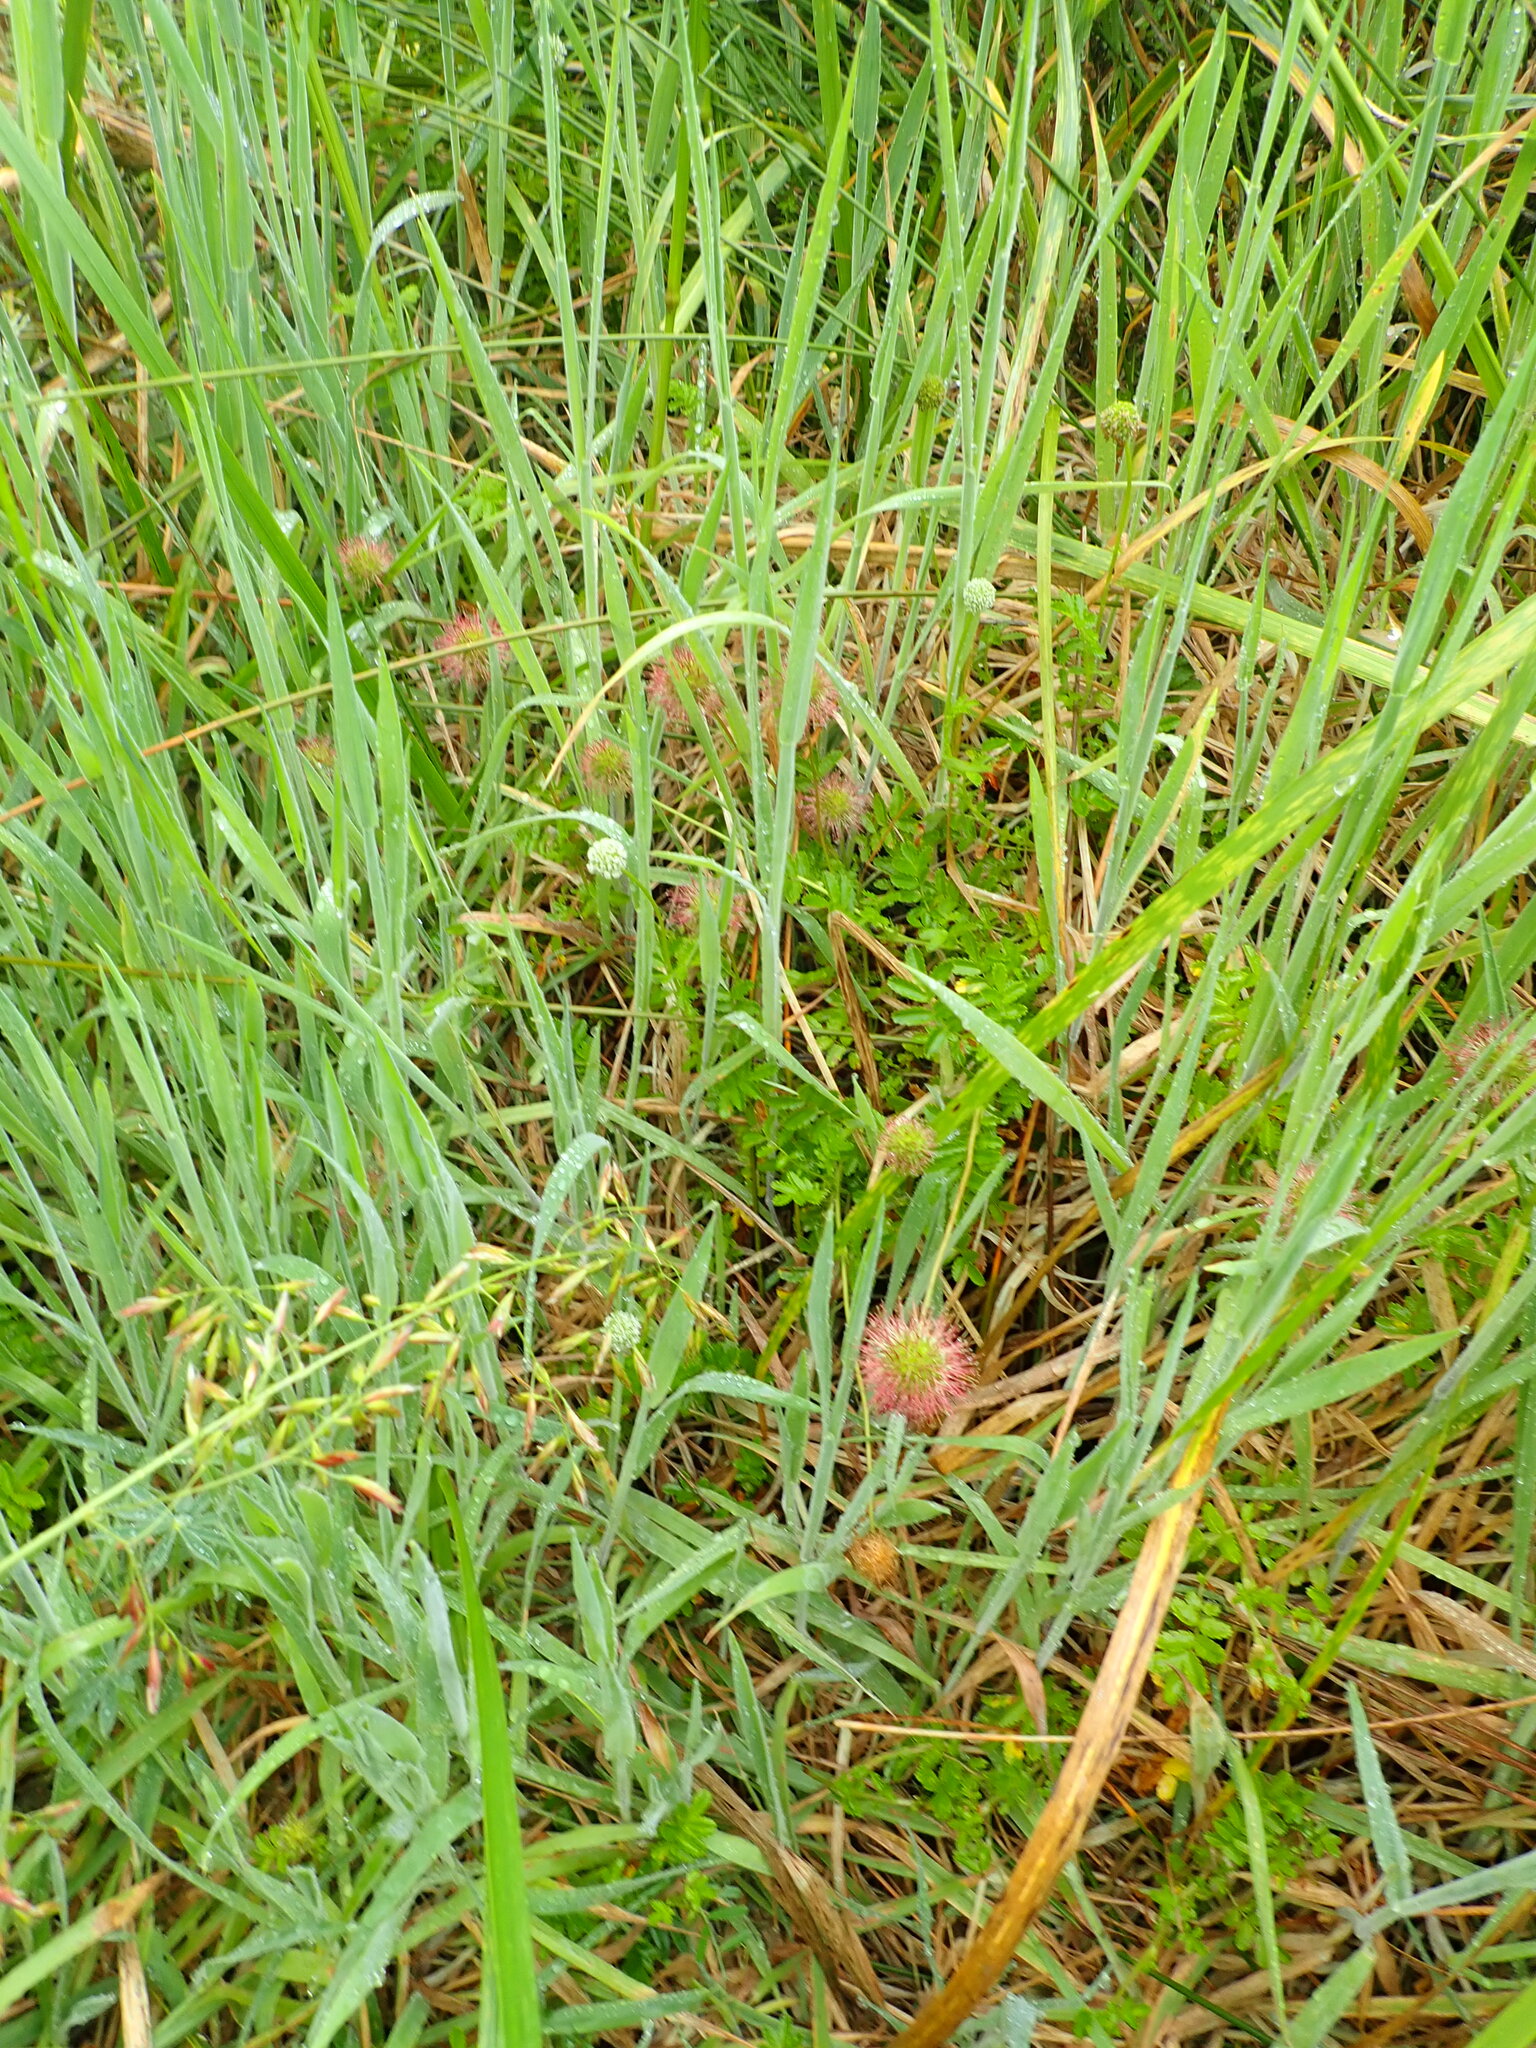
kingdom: Plantae
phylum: Tracheophyta
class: Magnoliopsida
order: Rosales
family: Rosaceae
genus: Acaena
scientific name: Acaena novae-zelandiae
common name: Pirri-pirri-bur
